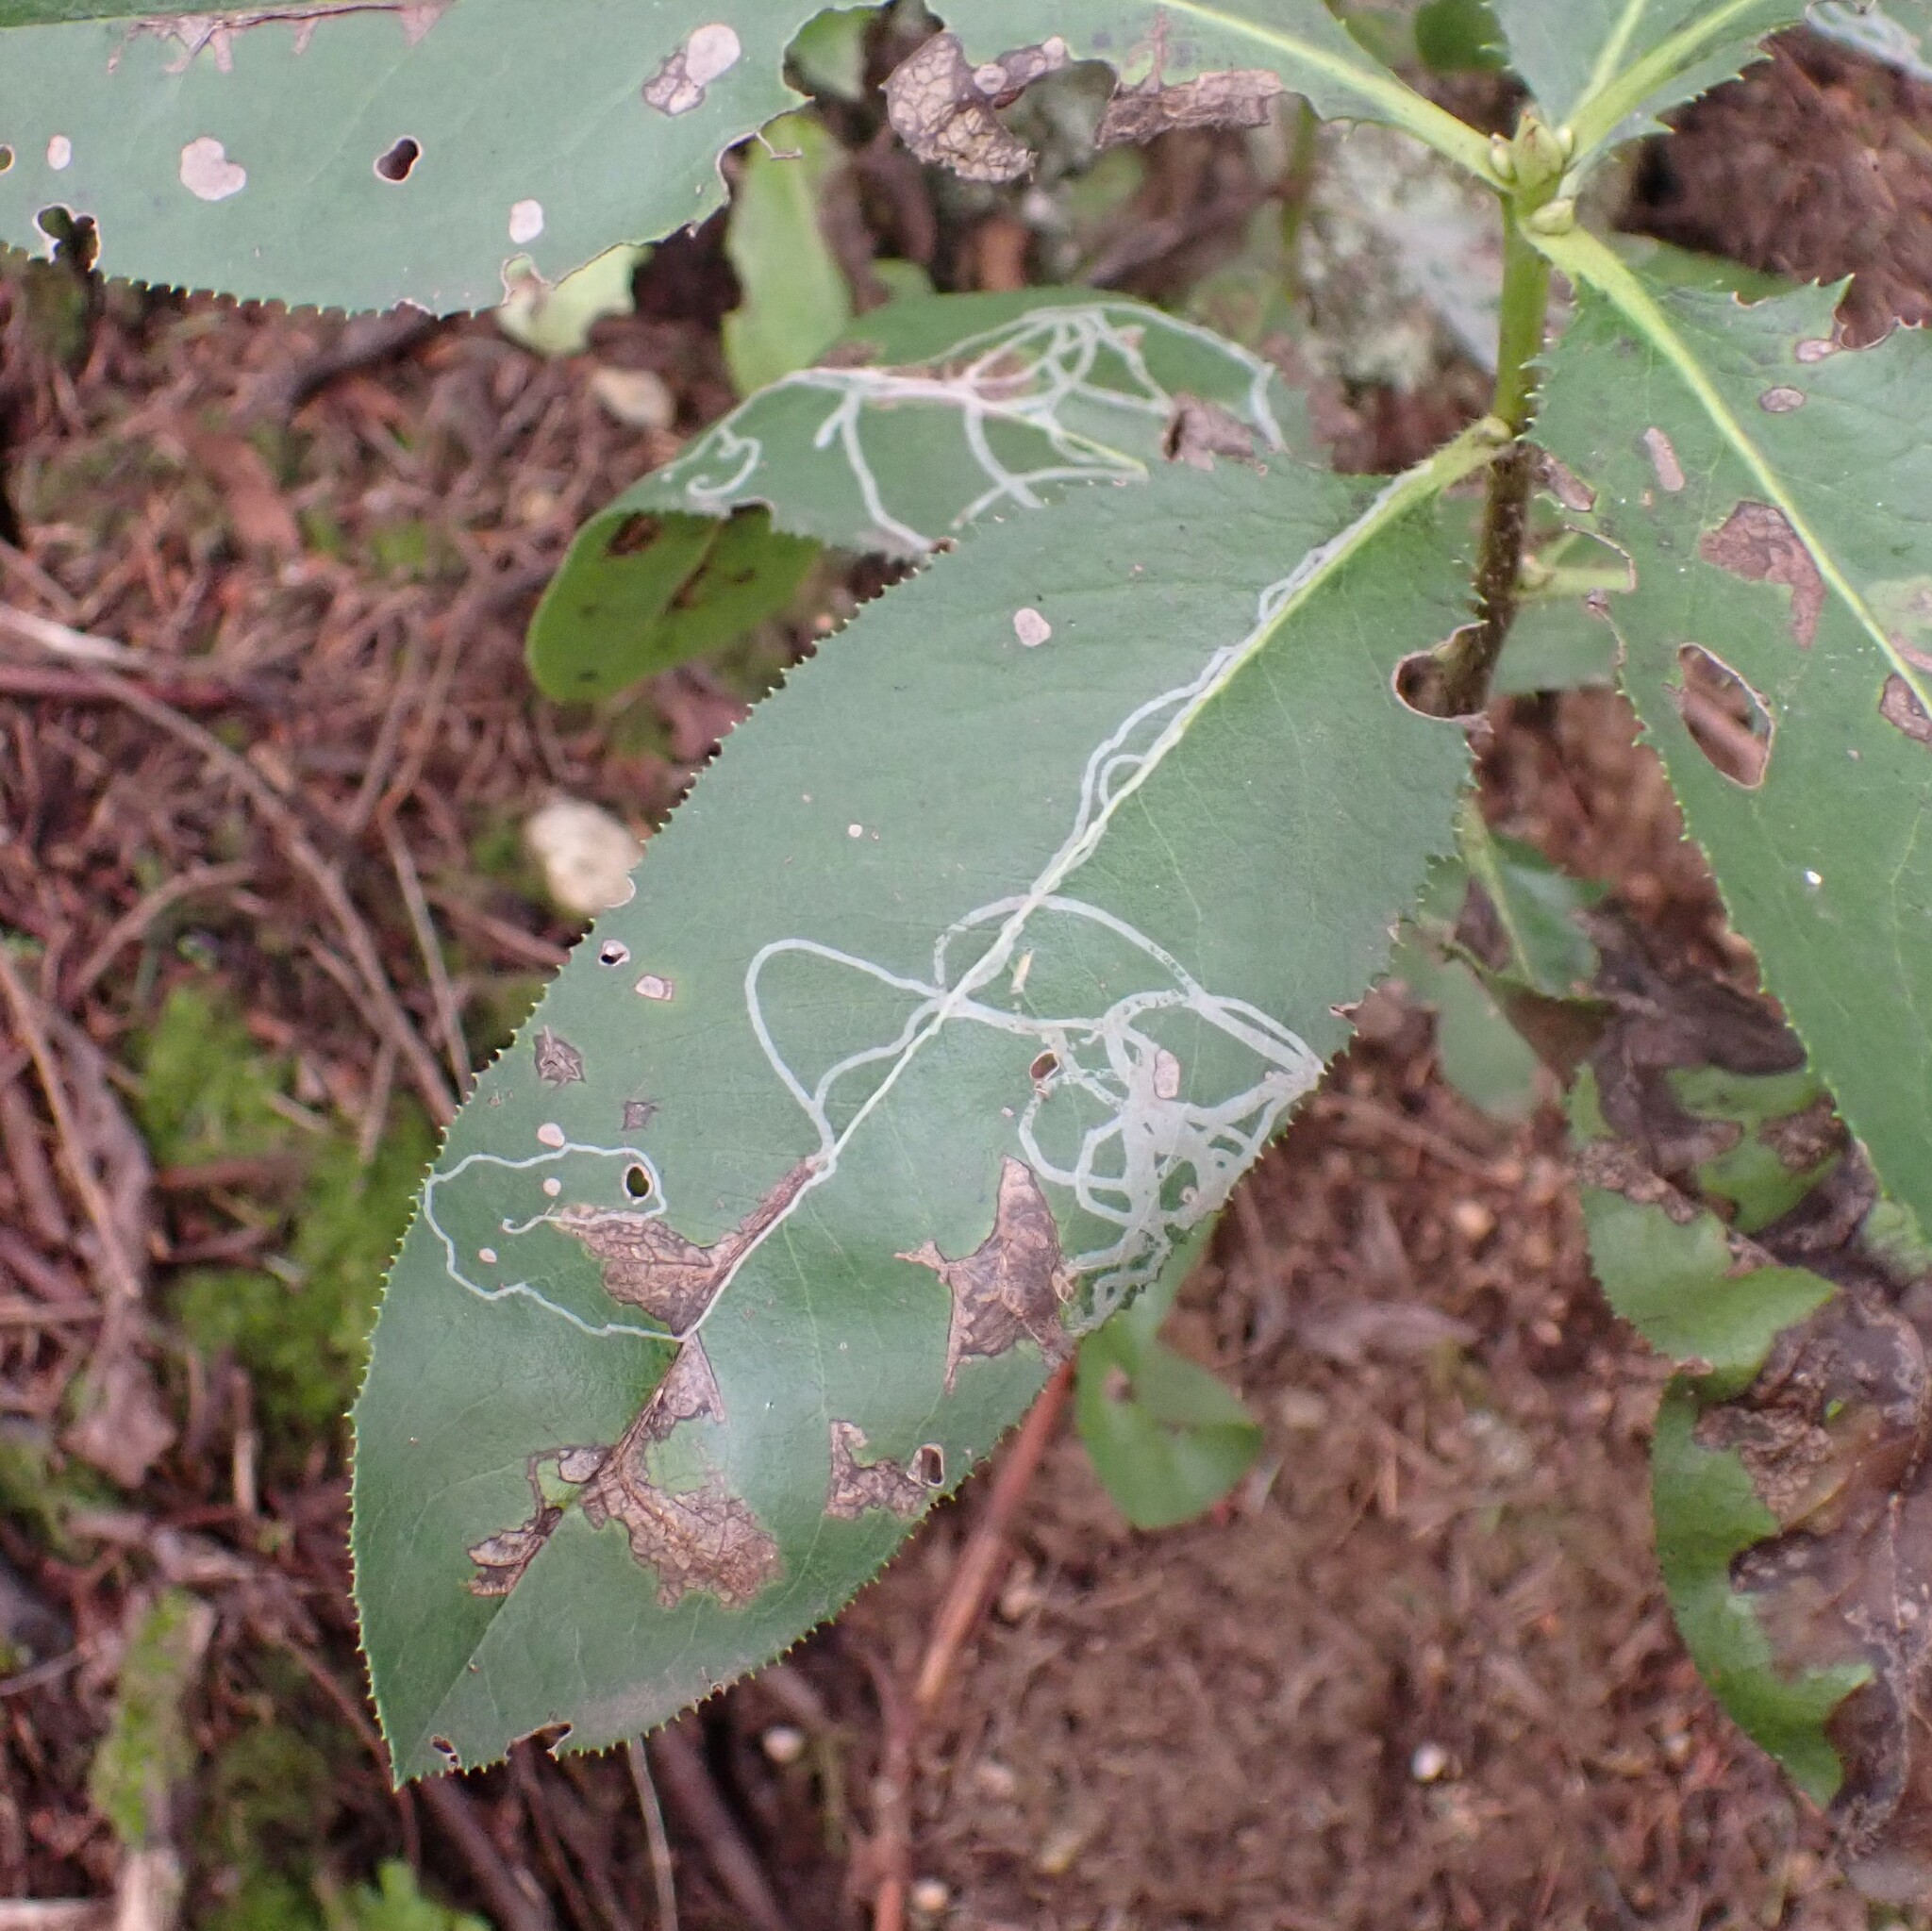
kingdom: Animalia
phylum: Arthropoda
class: Insecta
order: Lepidoptera
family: Gracillariidae
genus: Marmara
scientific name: Marmara arbutiella
